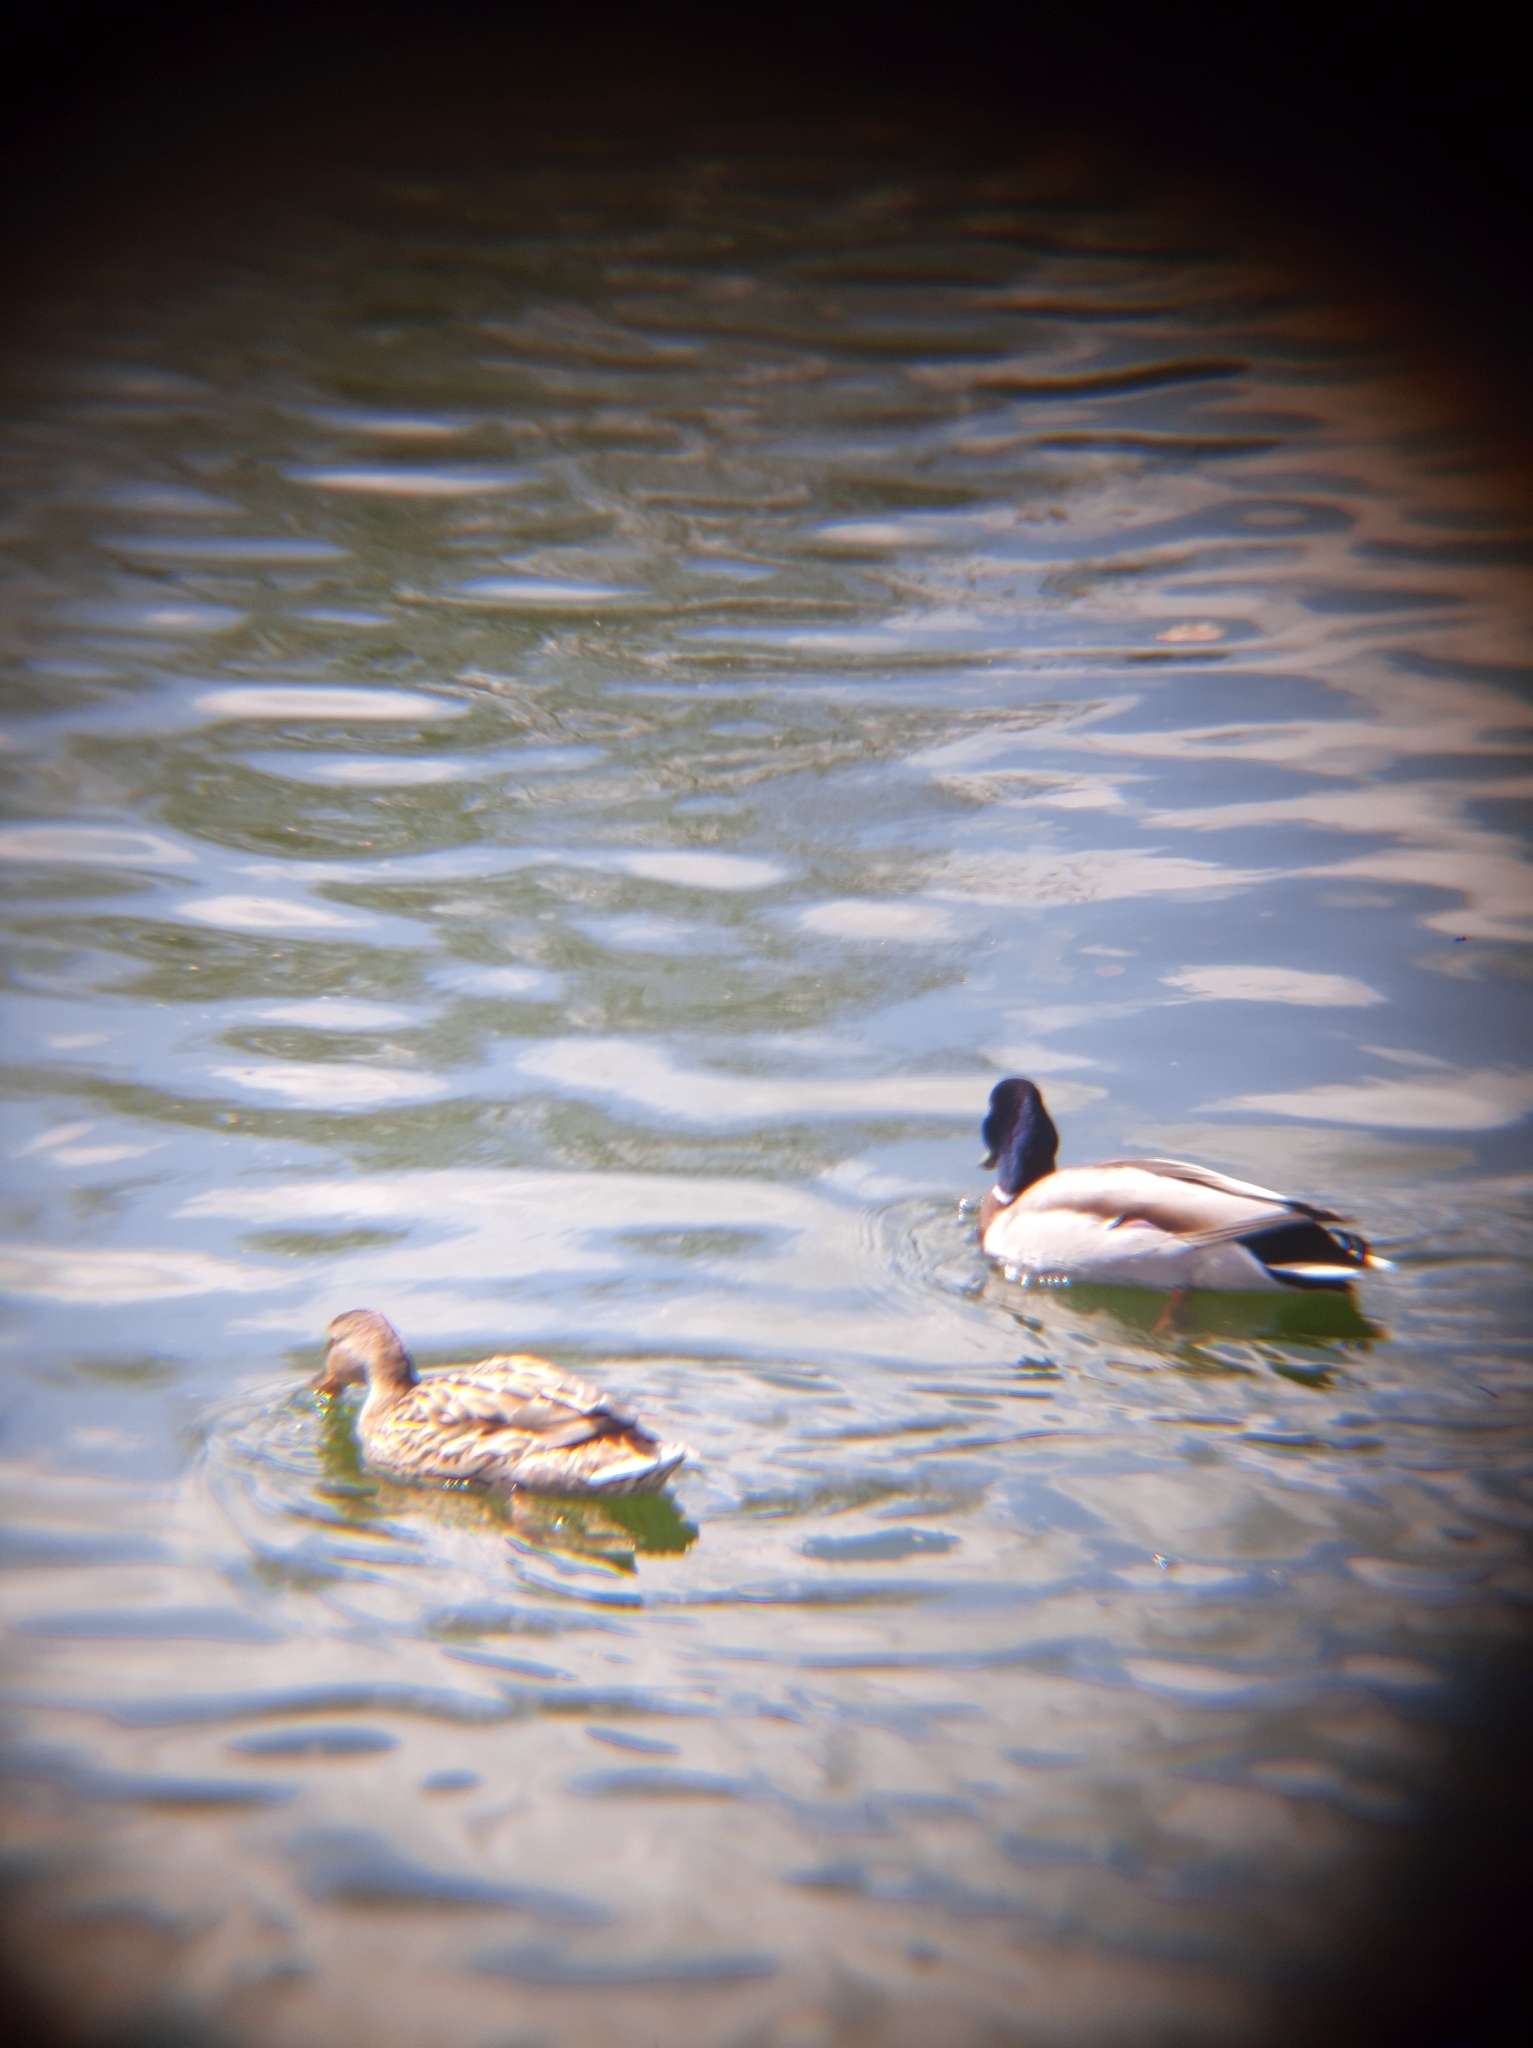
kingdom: Animalia
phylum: Chordata
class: Aves
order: Anseriformes
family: Anatidae
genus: Anas
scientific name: Anas platyrhynchos
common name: Mallard
